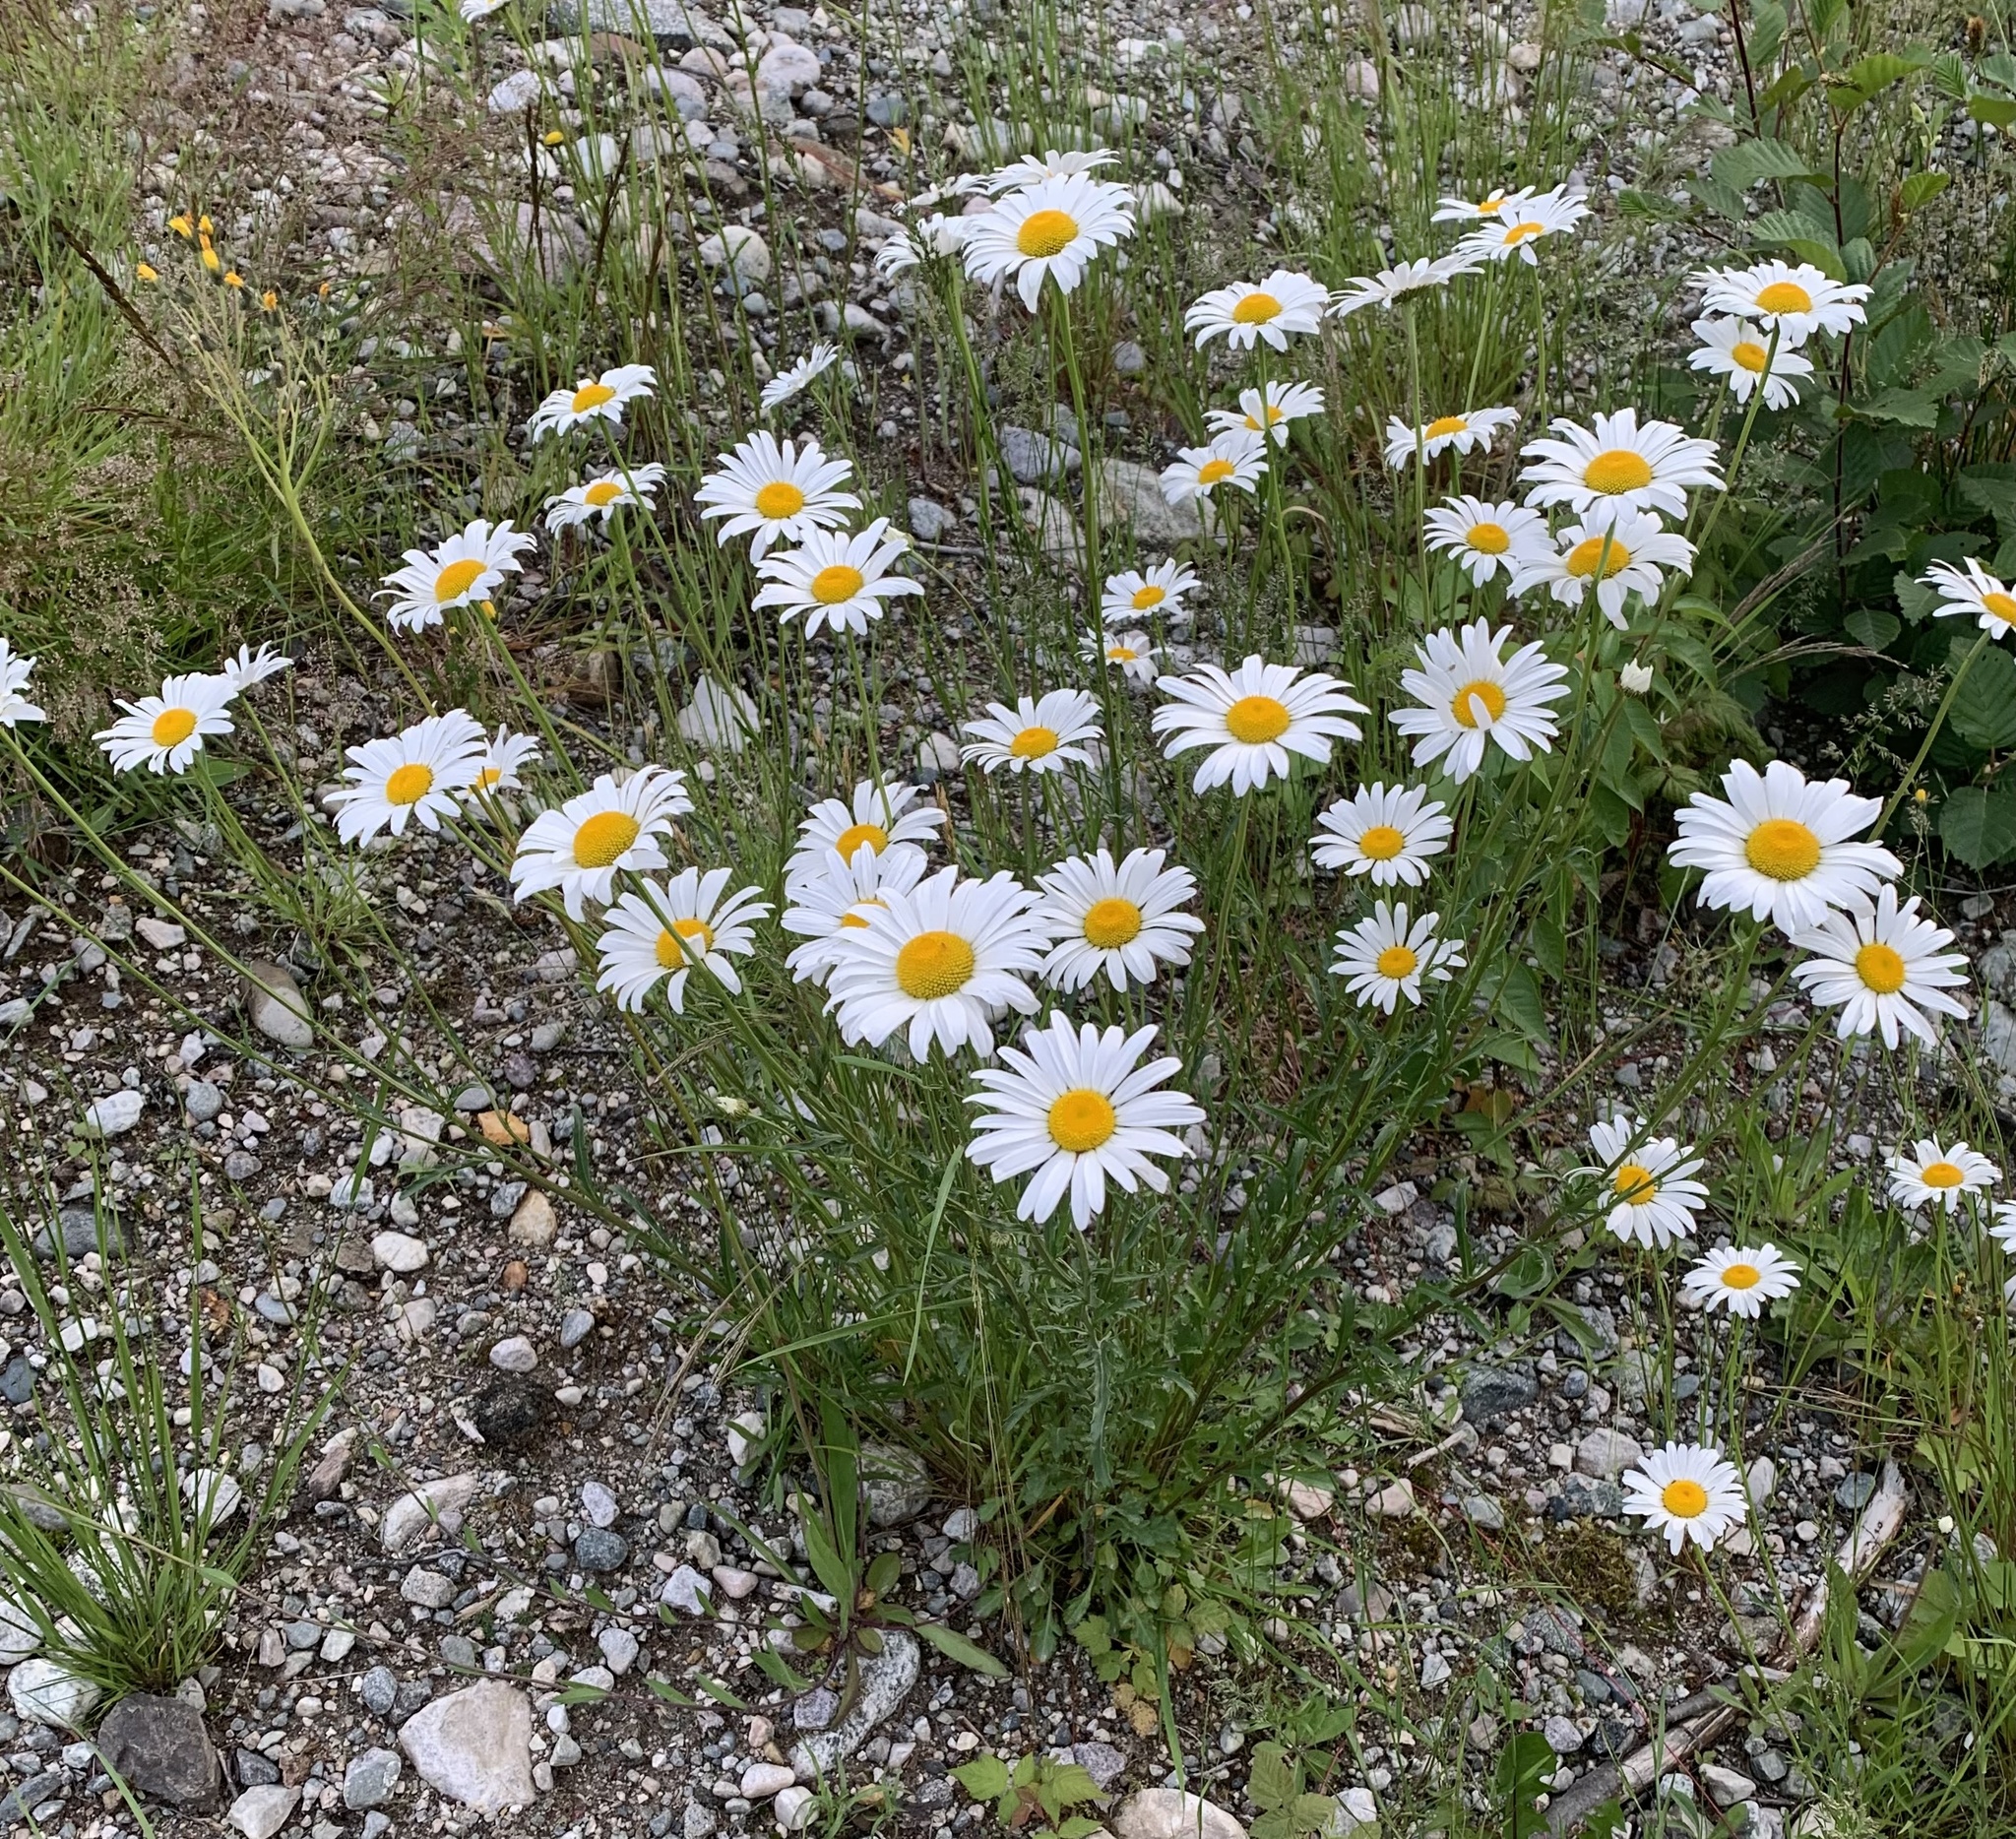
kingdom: Plantae
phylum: Tracheophyta
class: Magnoliopsida
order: Asterales
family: Asteraceae
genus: Leucanthemum
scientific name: Leucanthemum vulgare
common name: Oxeye daisy
